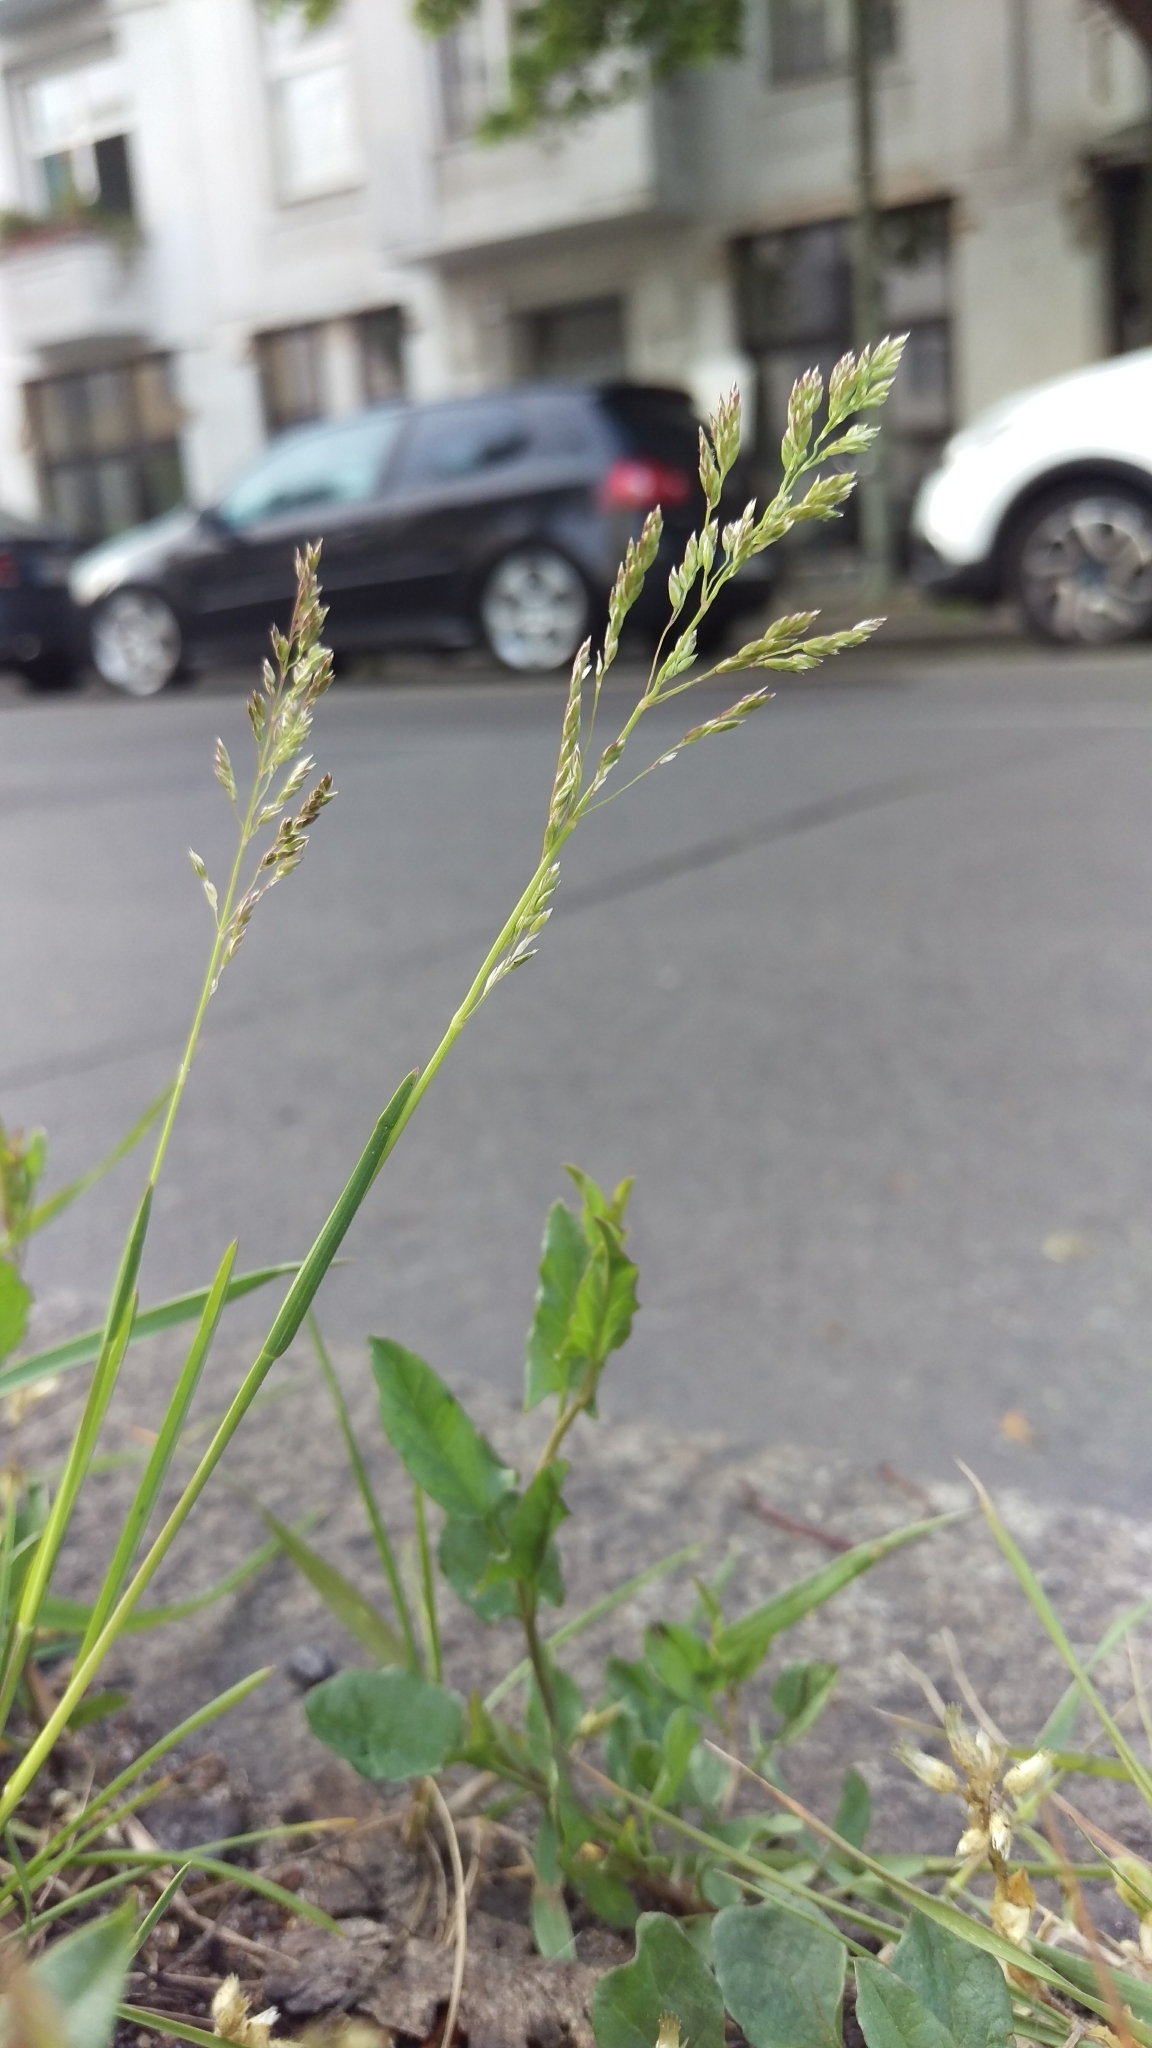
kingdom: Plantae
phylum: Tracheophyta
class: Liliopsida
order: Poales
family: Poaceae
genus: Poa
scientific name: Poa compressa
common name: Canada bluegrass
